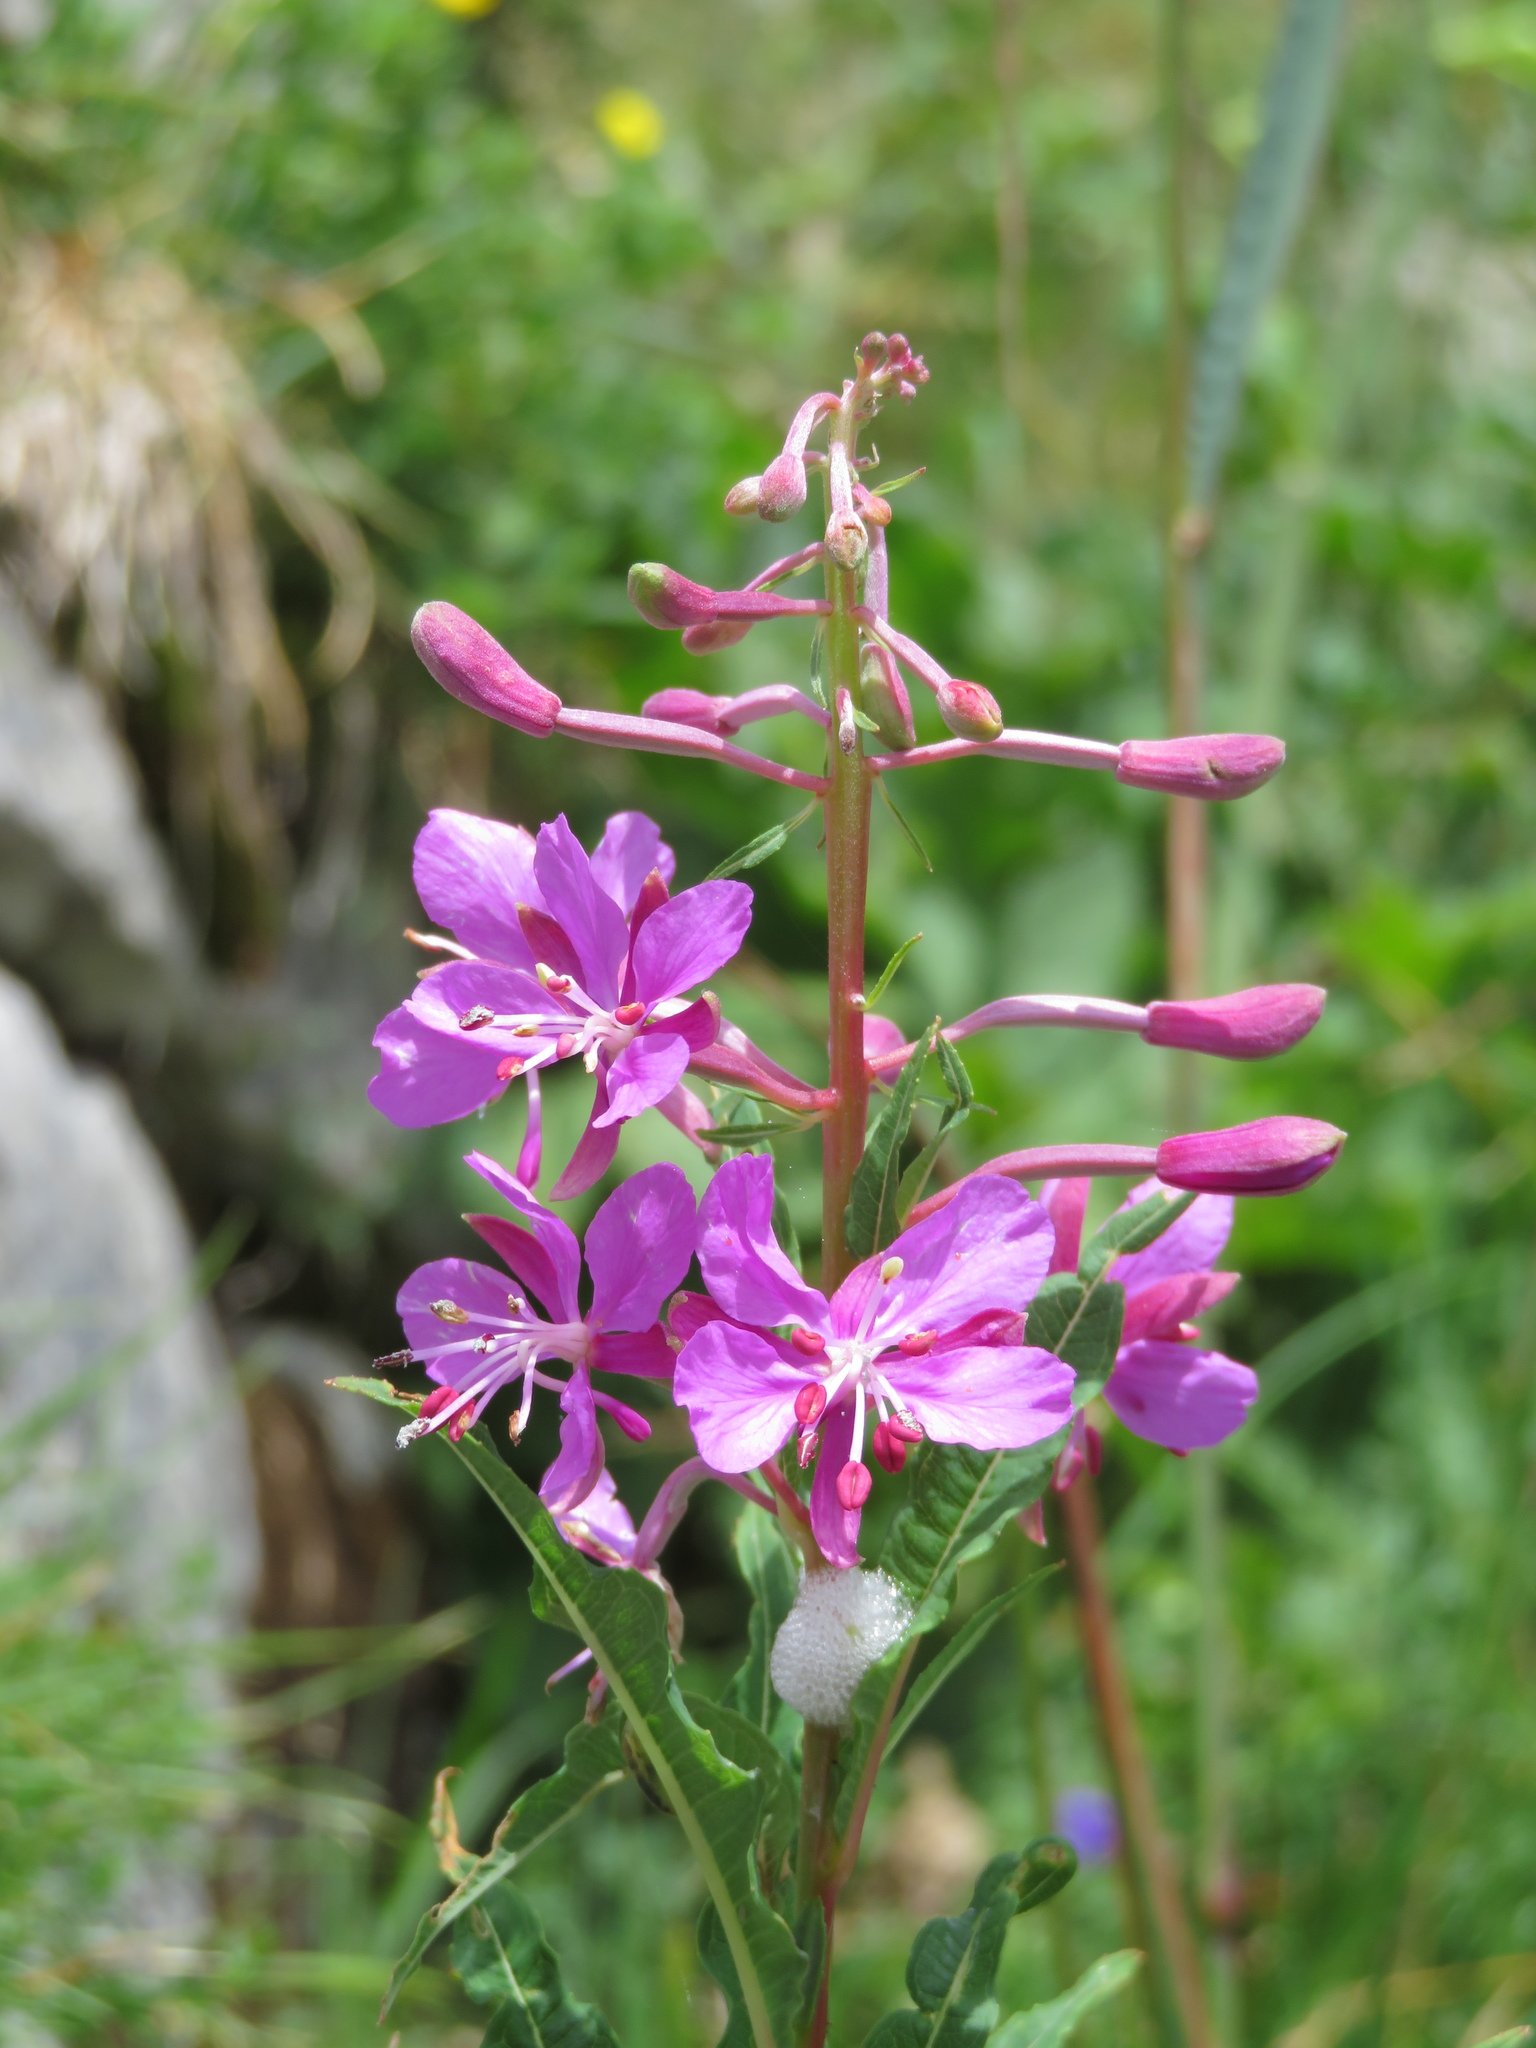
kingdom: Plantae
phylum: Tracheophyta
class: Magnoliopsida
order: Myrtales
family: Onagraceae
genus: Chamaenerion
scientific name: Chamaenerion angustifolium
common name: Fireweed
